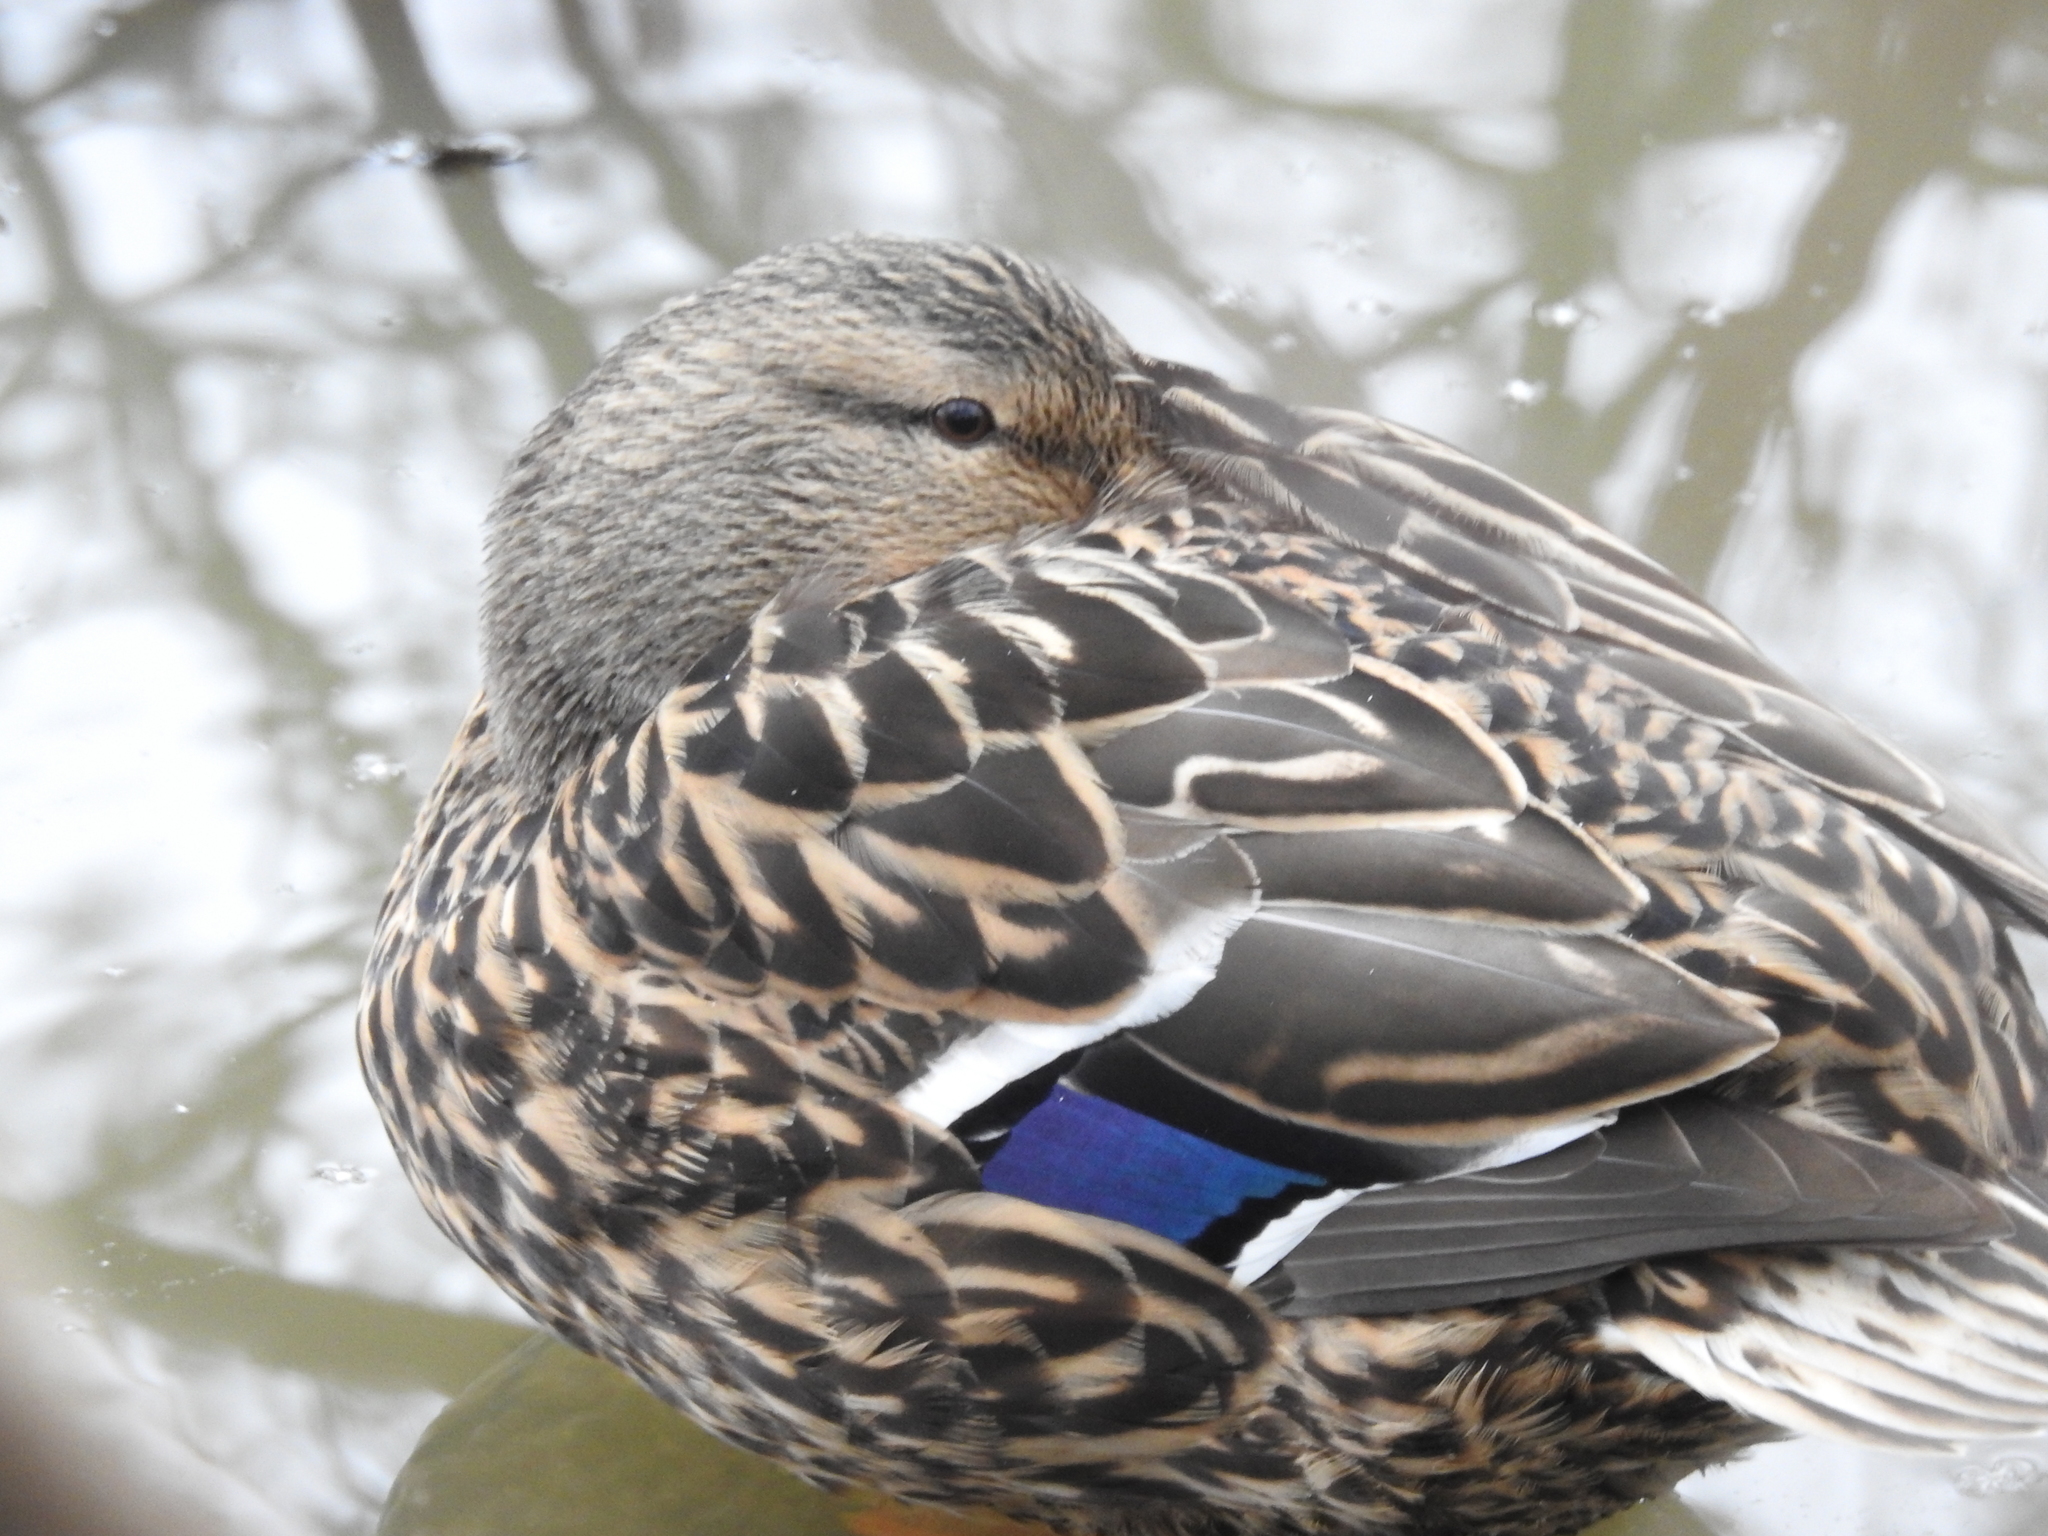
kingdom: Animalia
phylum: Chordata
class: Aves
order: Anseriformes
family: Anatidae
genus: Anas
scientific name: Anas platyrhynchos
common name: Mallard
